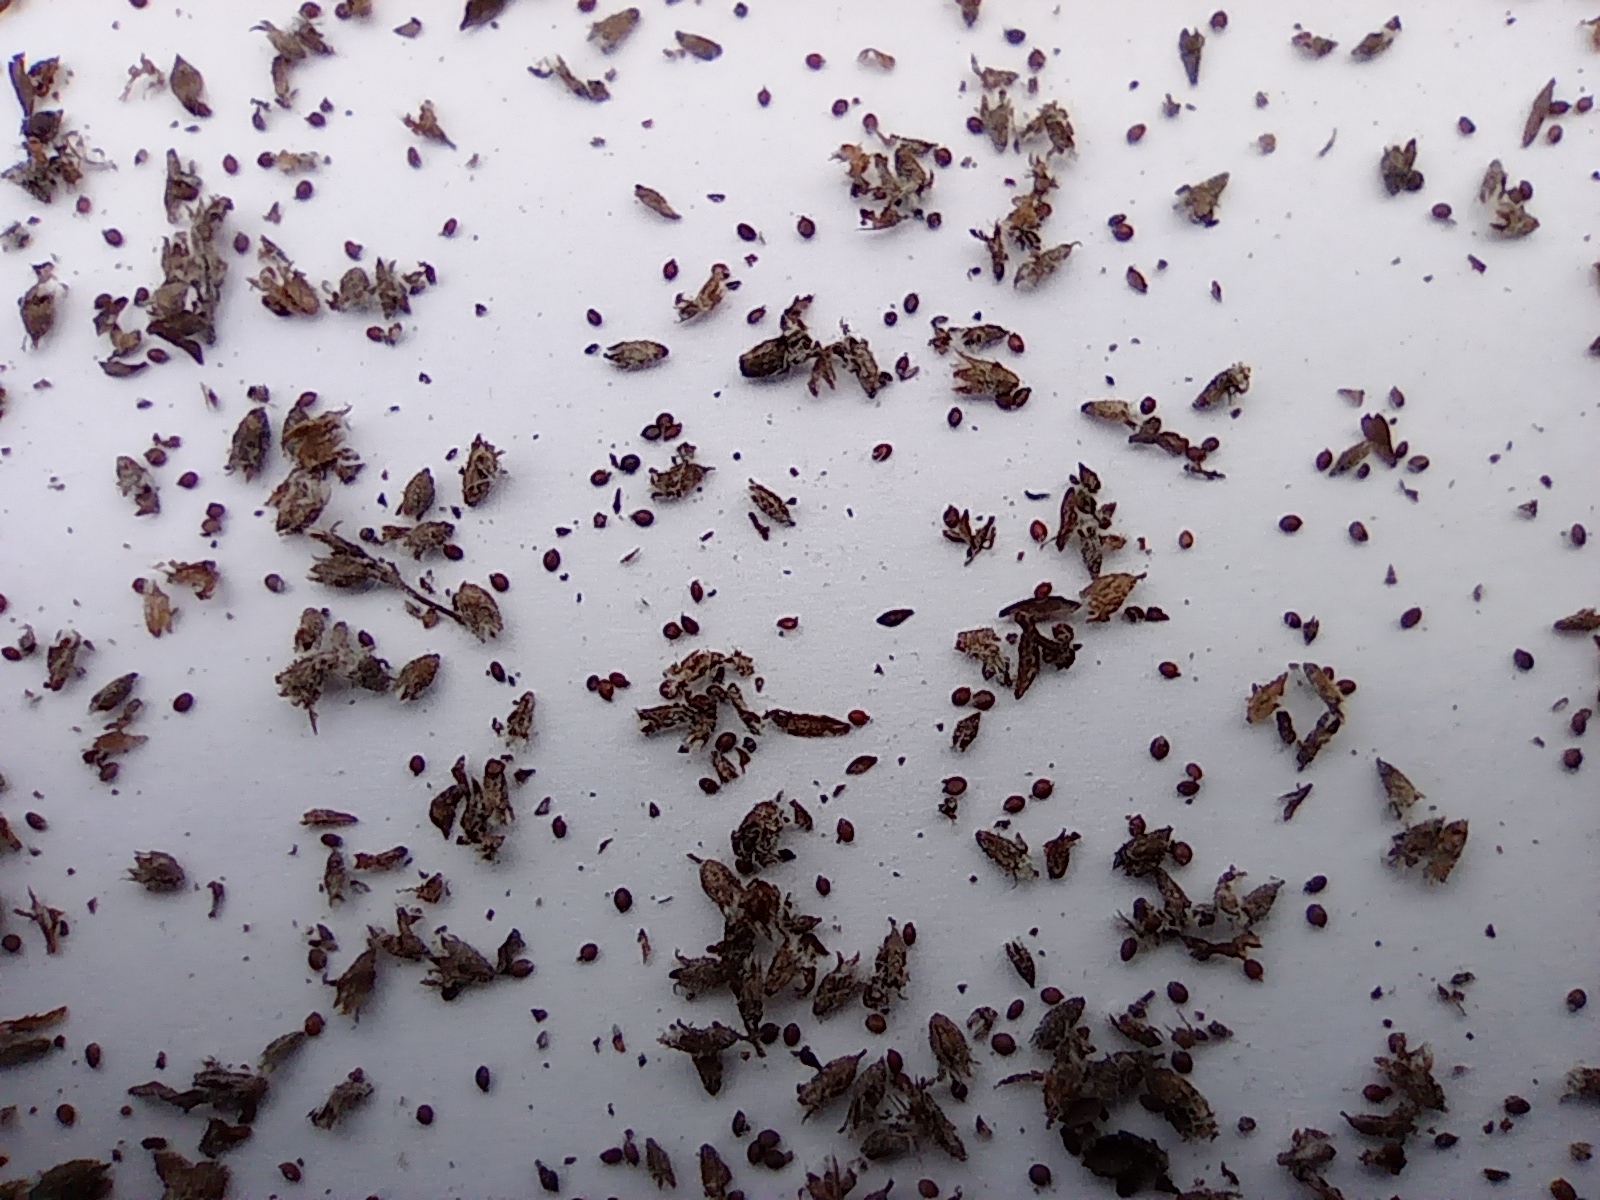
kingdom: Plantae
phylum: Tracheophyta
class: Magnoliopsida
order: Lamiales
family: Lamiaceae
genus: Origanum
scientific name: Origanum vulgare
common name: Wild marjoram
